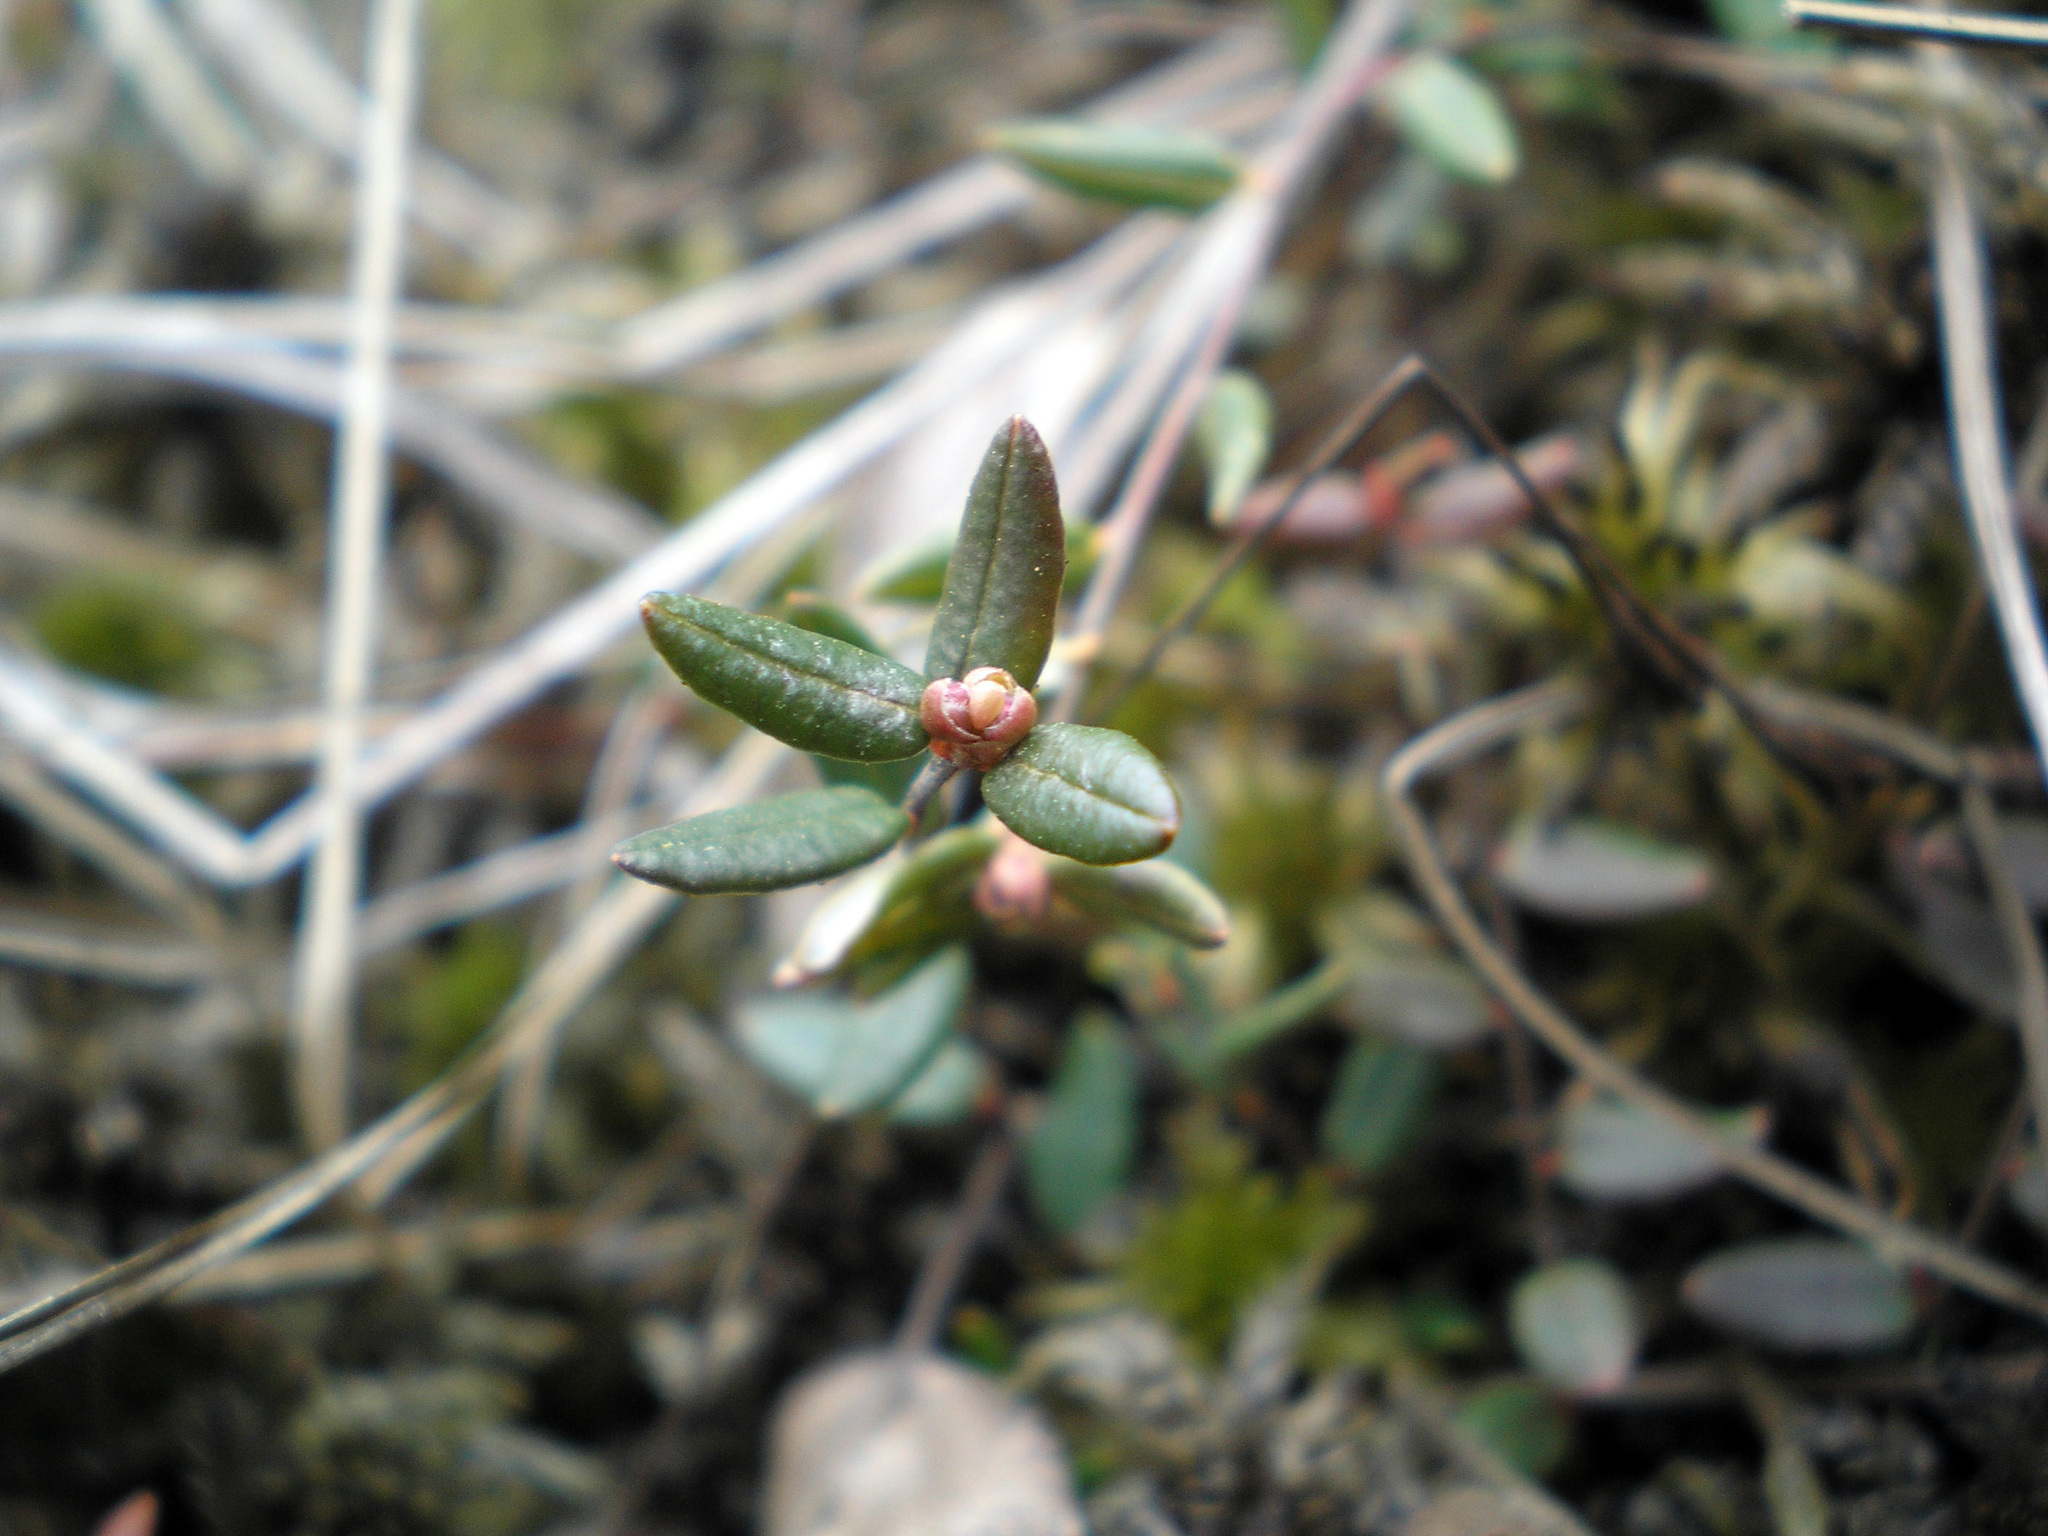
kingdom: Plantae
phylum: Tracheophyta
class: Magnoliopsida
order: Ericales
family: Ericaceae
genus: Vaccinium
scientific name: Vaccinium oxycoccos
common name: Cranberry
